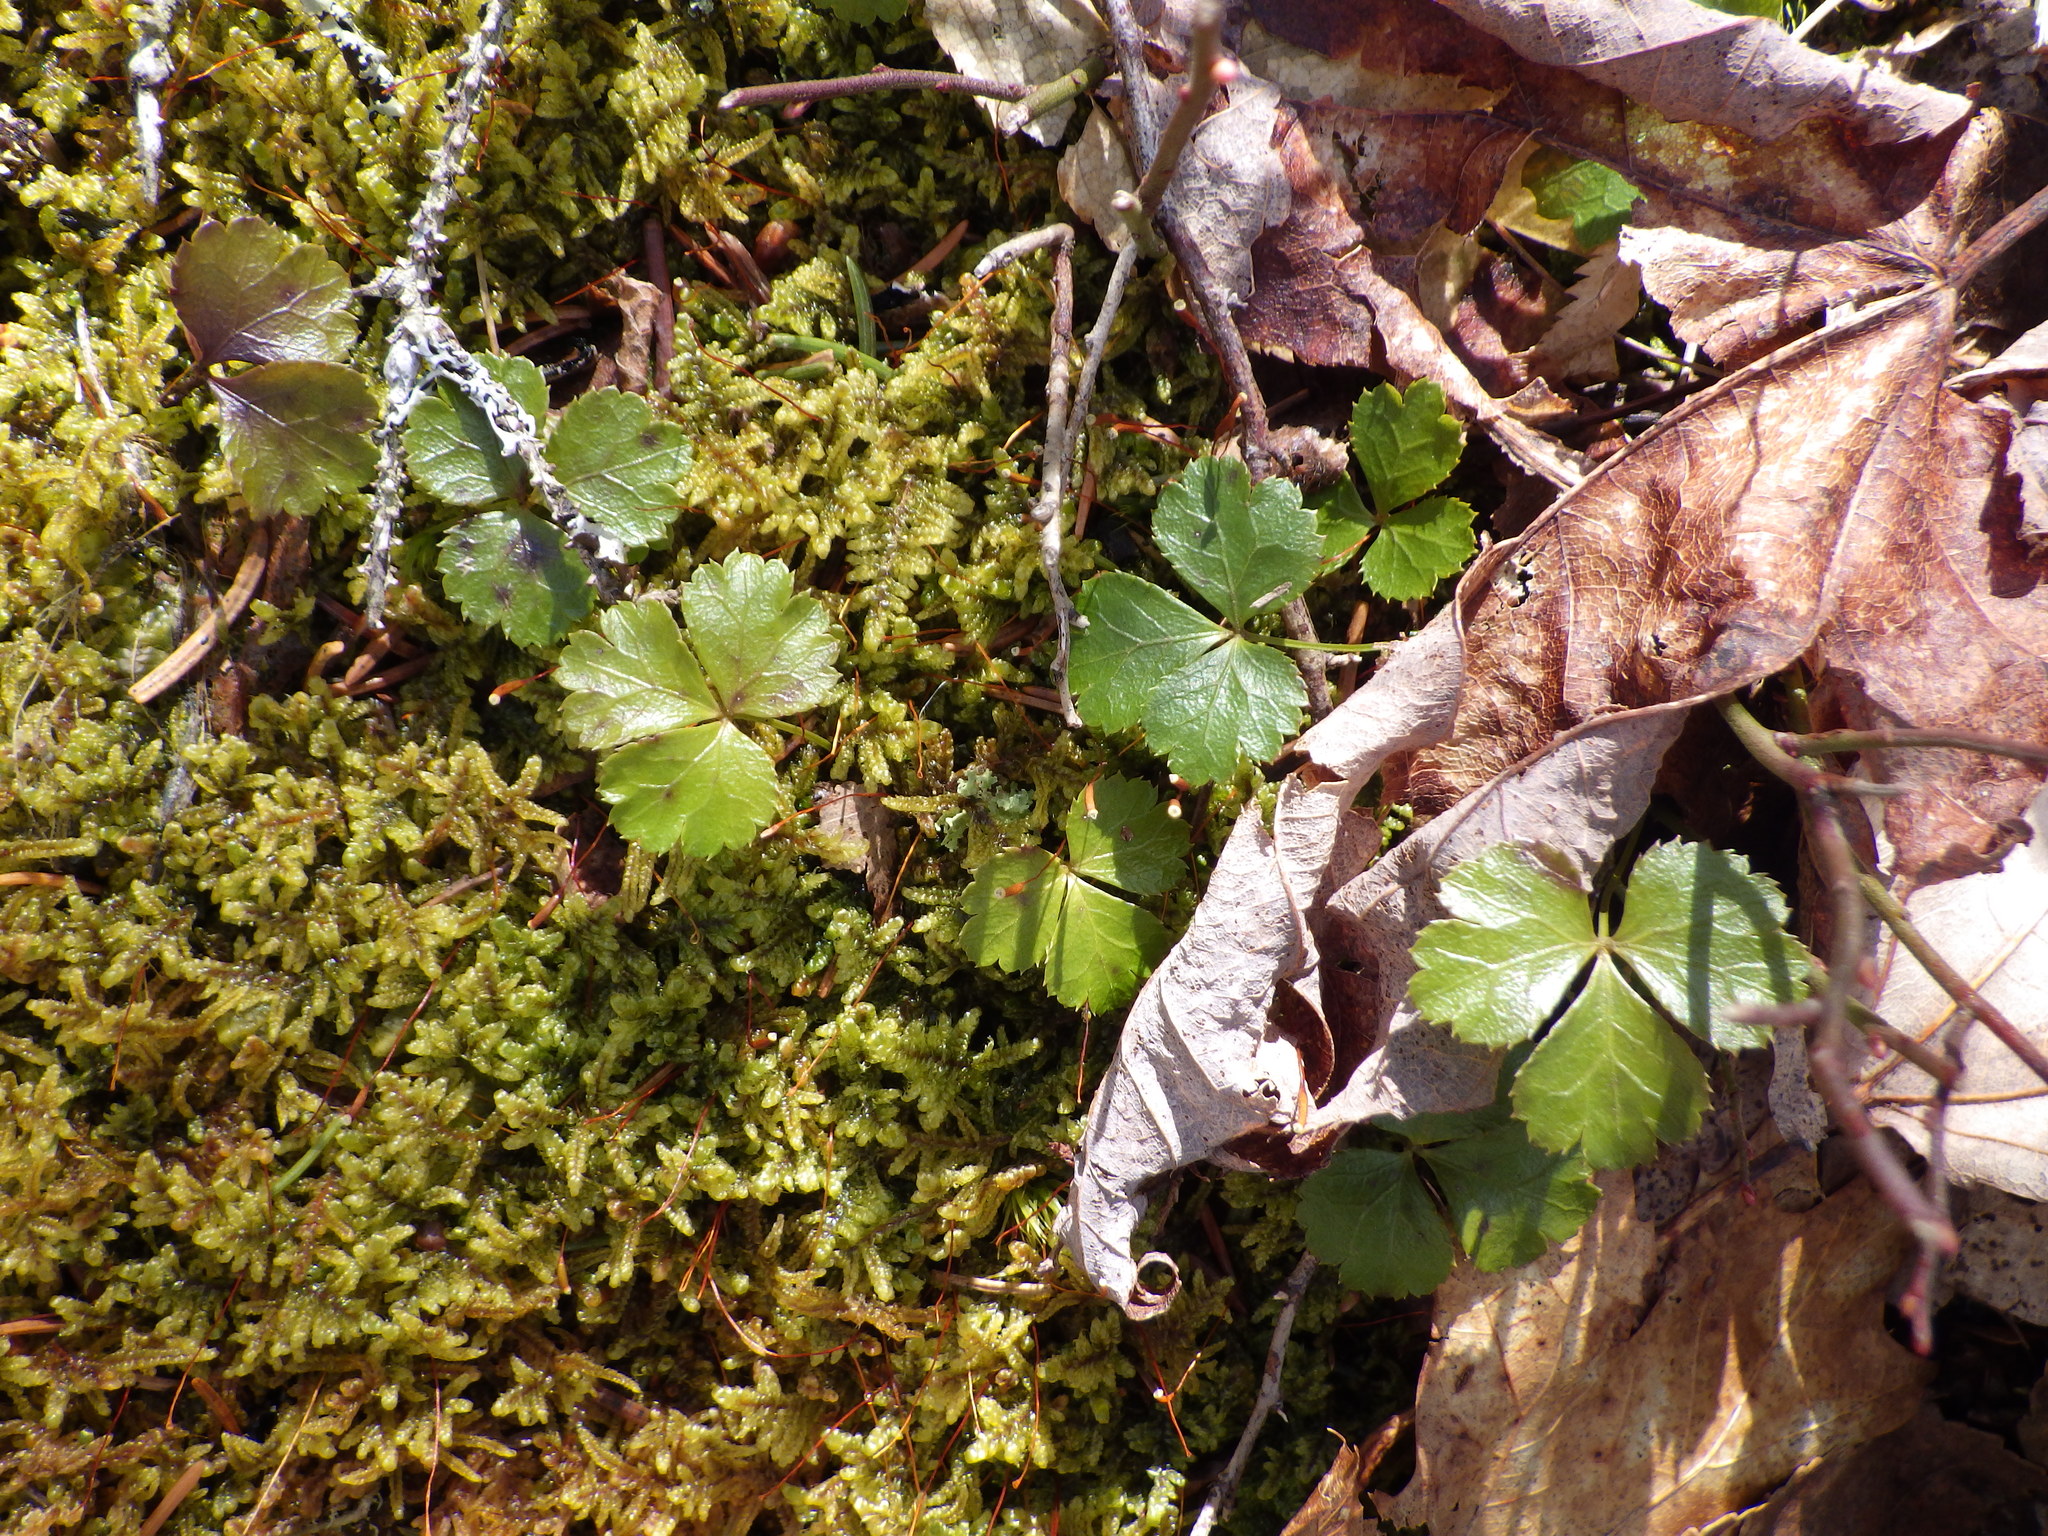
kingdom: Plantae
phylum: Tracheophyta
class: Magnoliopsida
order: Ranunculales
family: Ranunculaceae
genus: Coptis
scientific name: Coptis trifolia
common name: Canker-root
